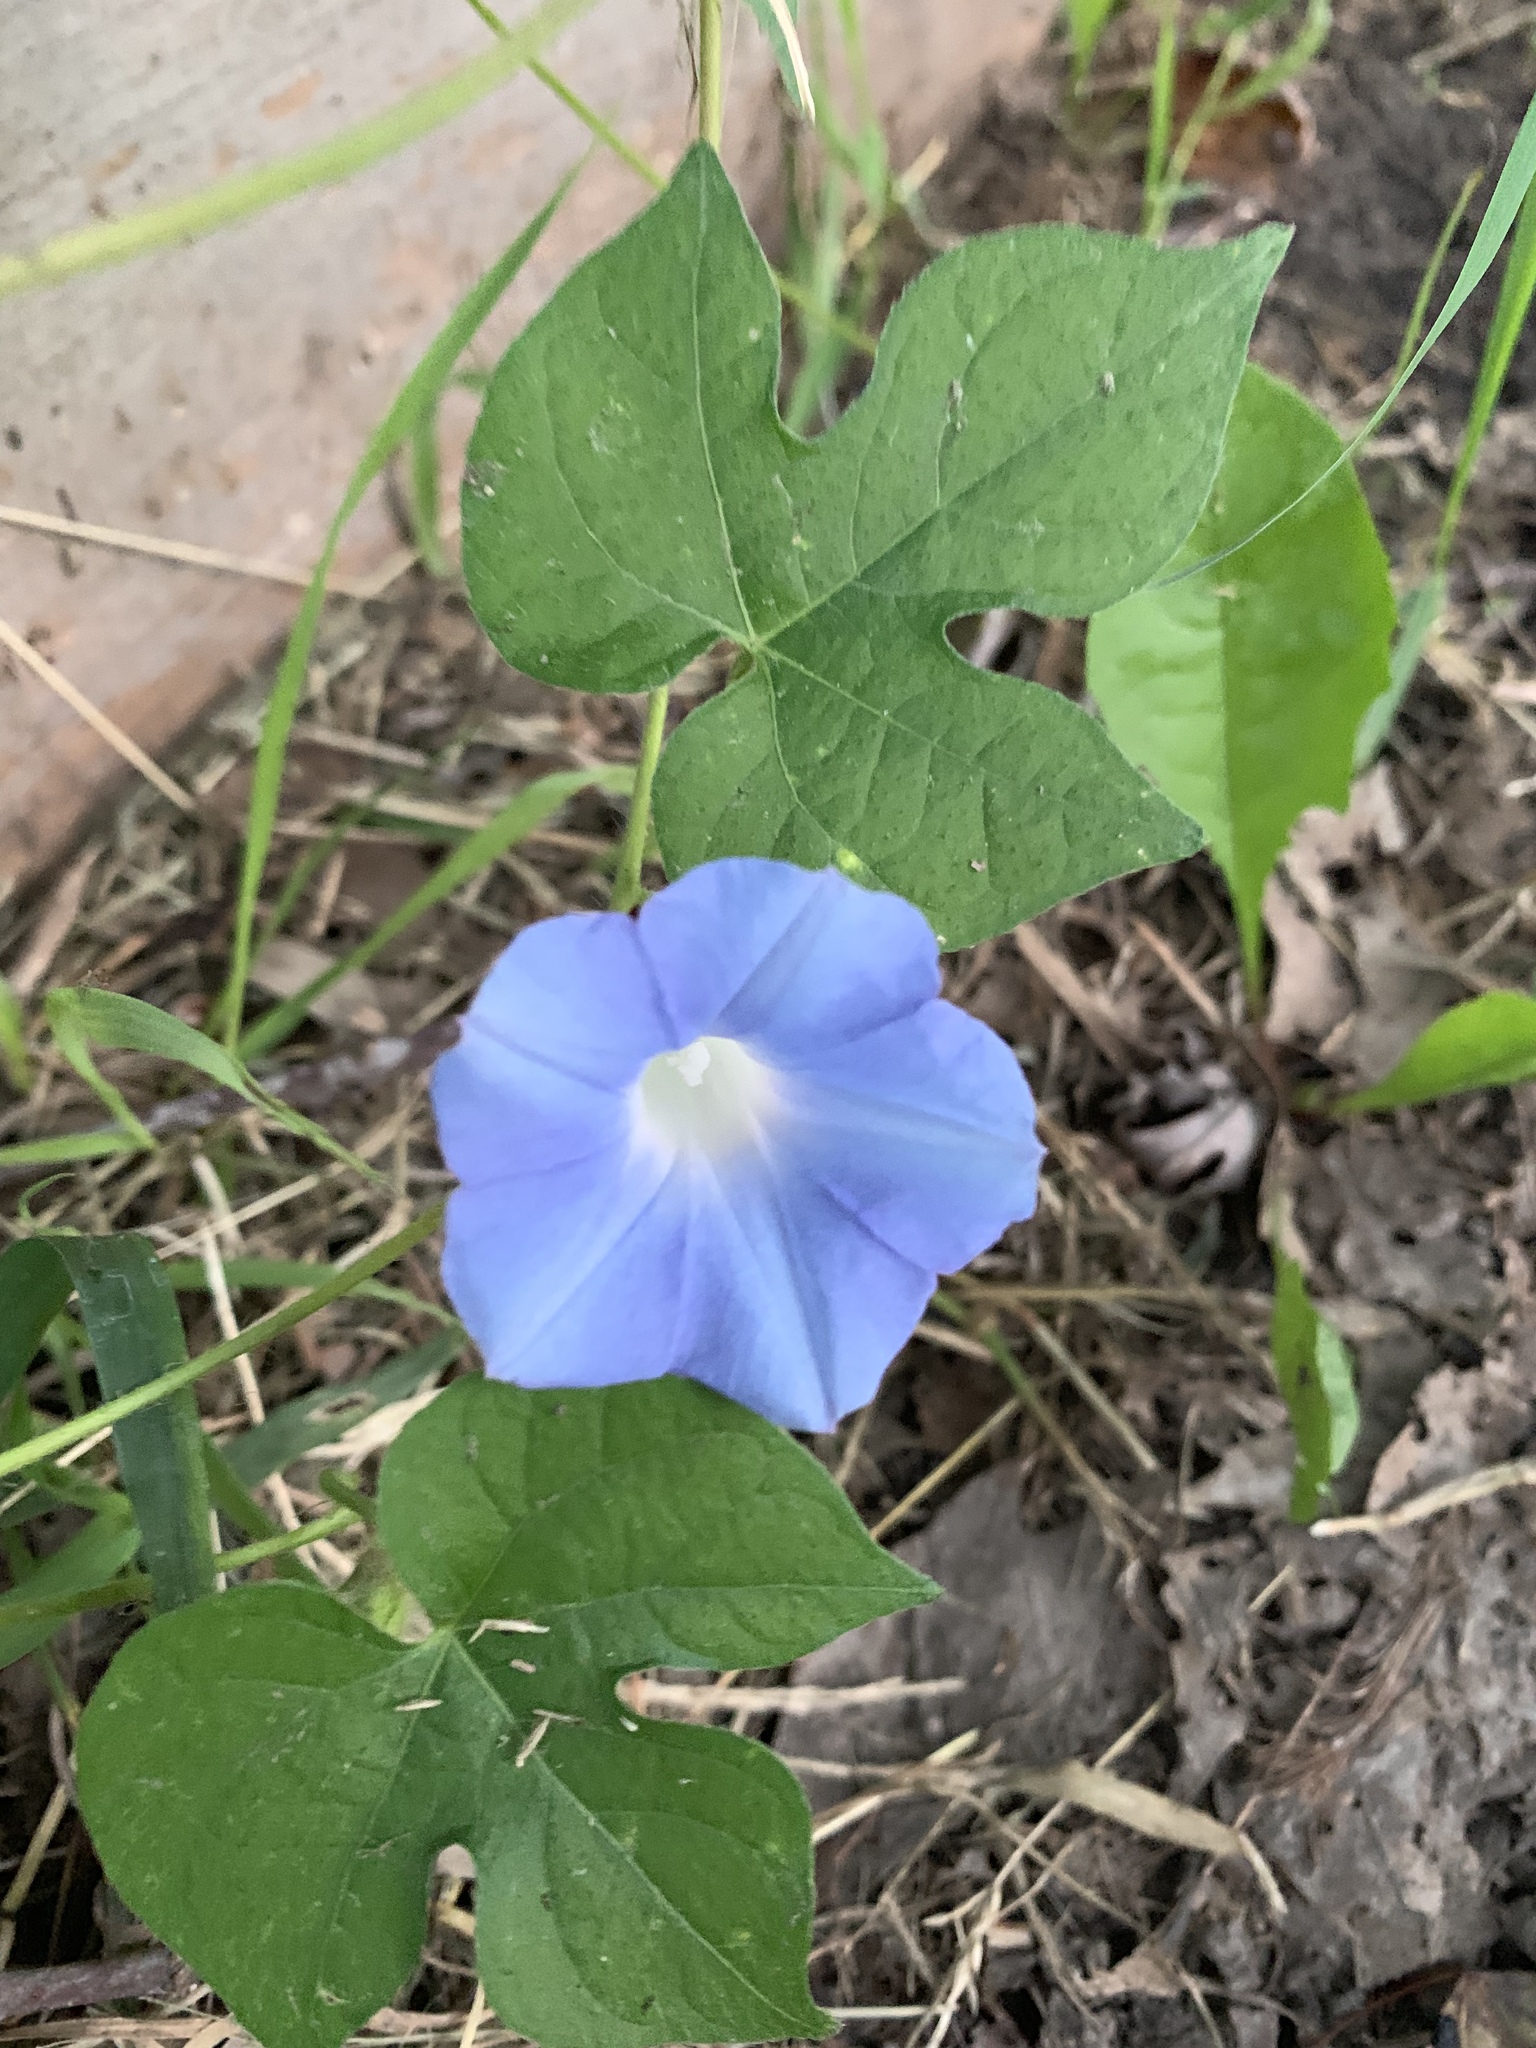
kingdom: Plantae
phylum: Tracheophyta
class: Magnoliopsida
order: Solanales
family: Convolvulaceae
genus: Ipomoea
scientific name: Ipomoea hederacea
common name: Ivy-leaved morning-glory
